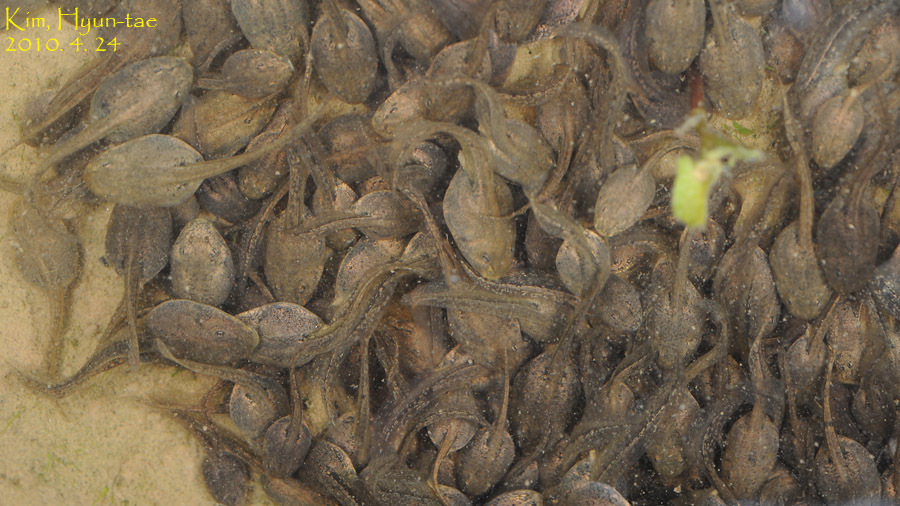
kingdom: Animalia
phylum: Chordata
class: Amphibia
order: Anura
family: Ranidae
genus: Rana
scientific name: Rana uenoi
